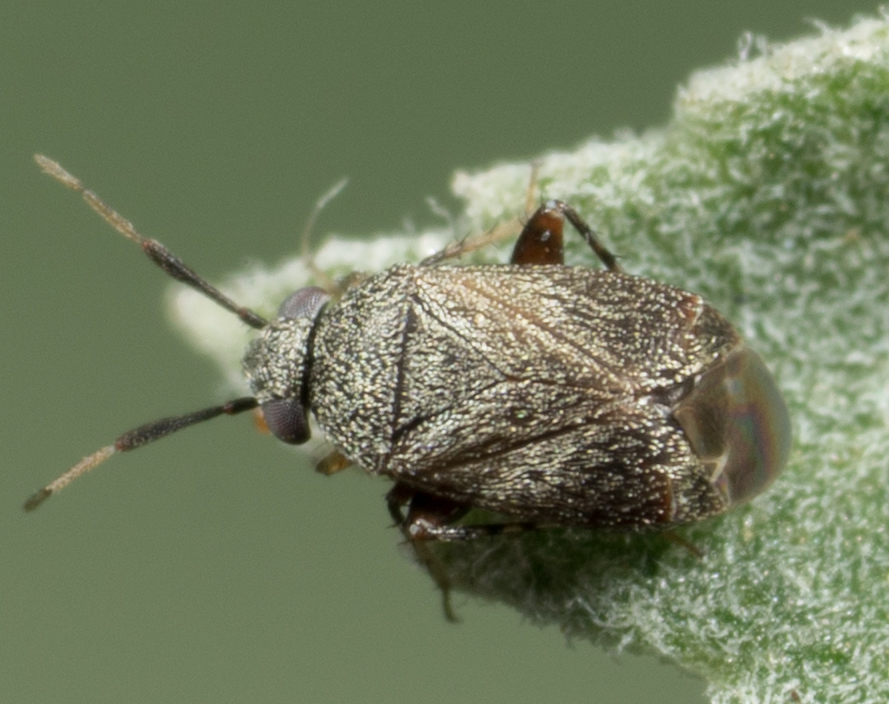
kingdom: Animalia
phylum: Arthropoda
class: Insecta
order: Hemiptera
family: Miridae
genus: Rhinacloa
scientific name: Rhinacloa forticornis
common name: Brown cotton mirid
